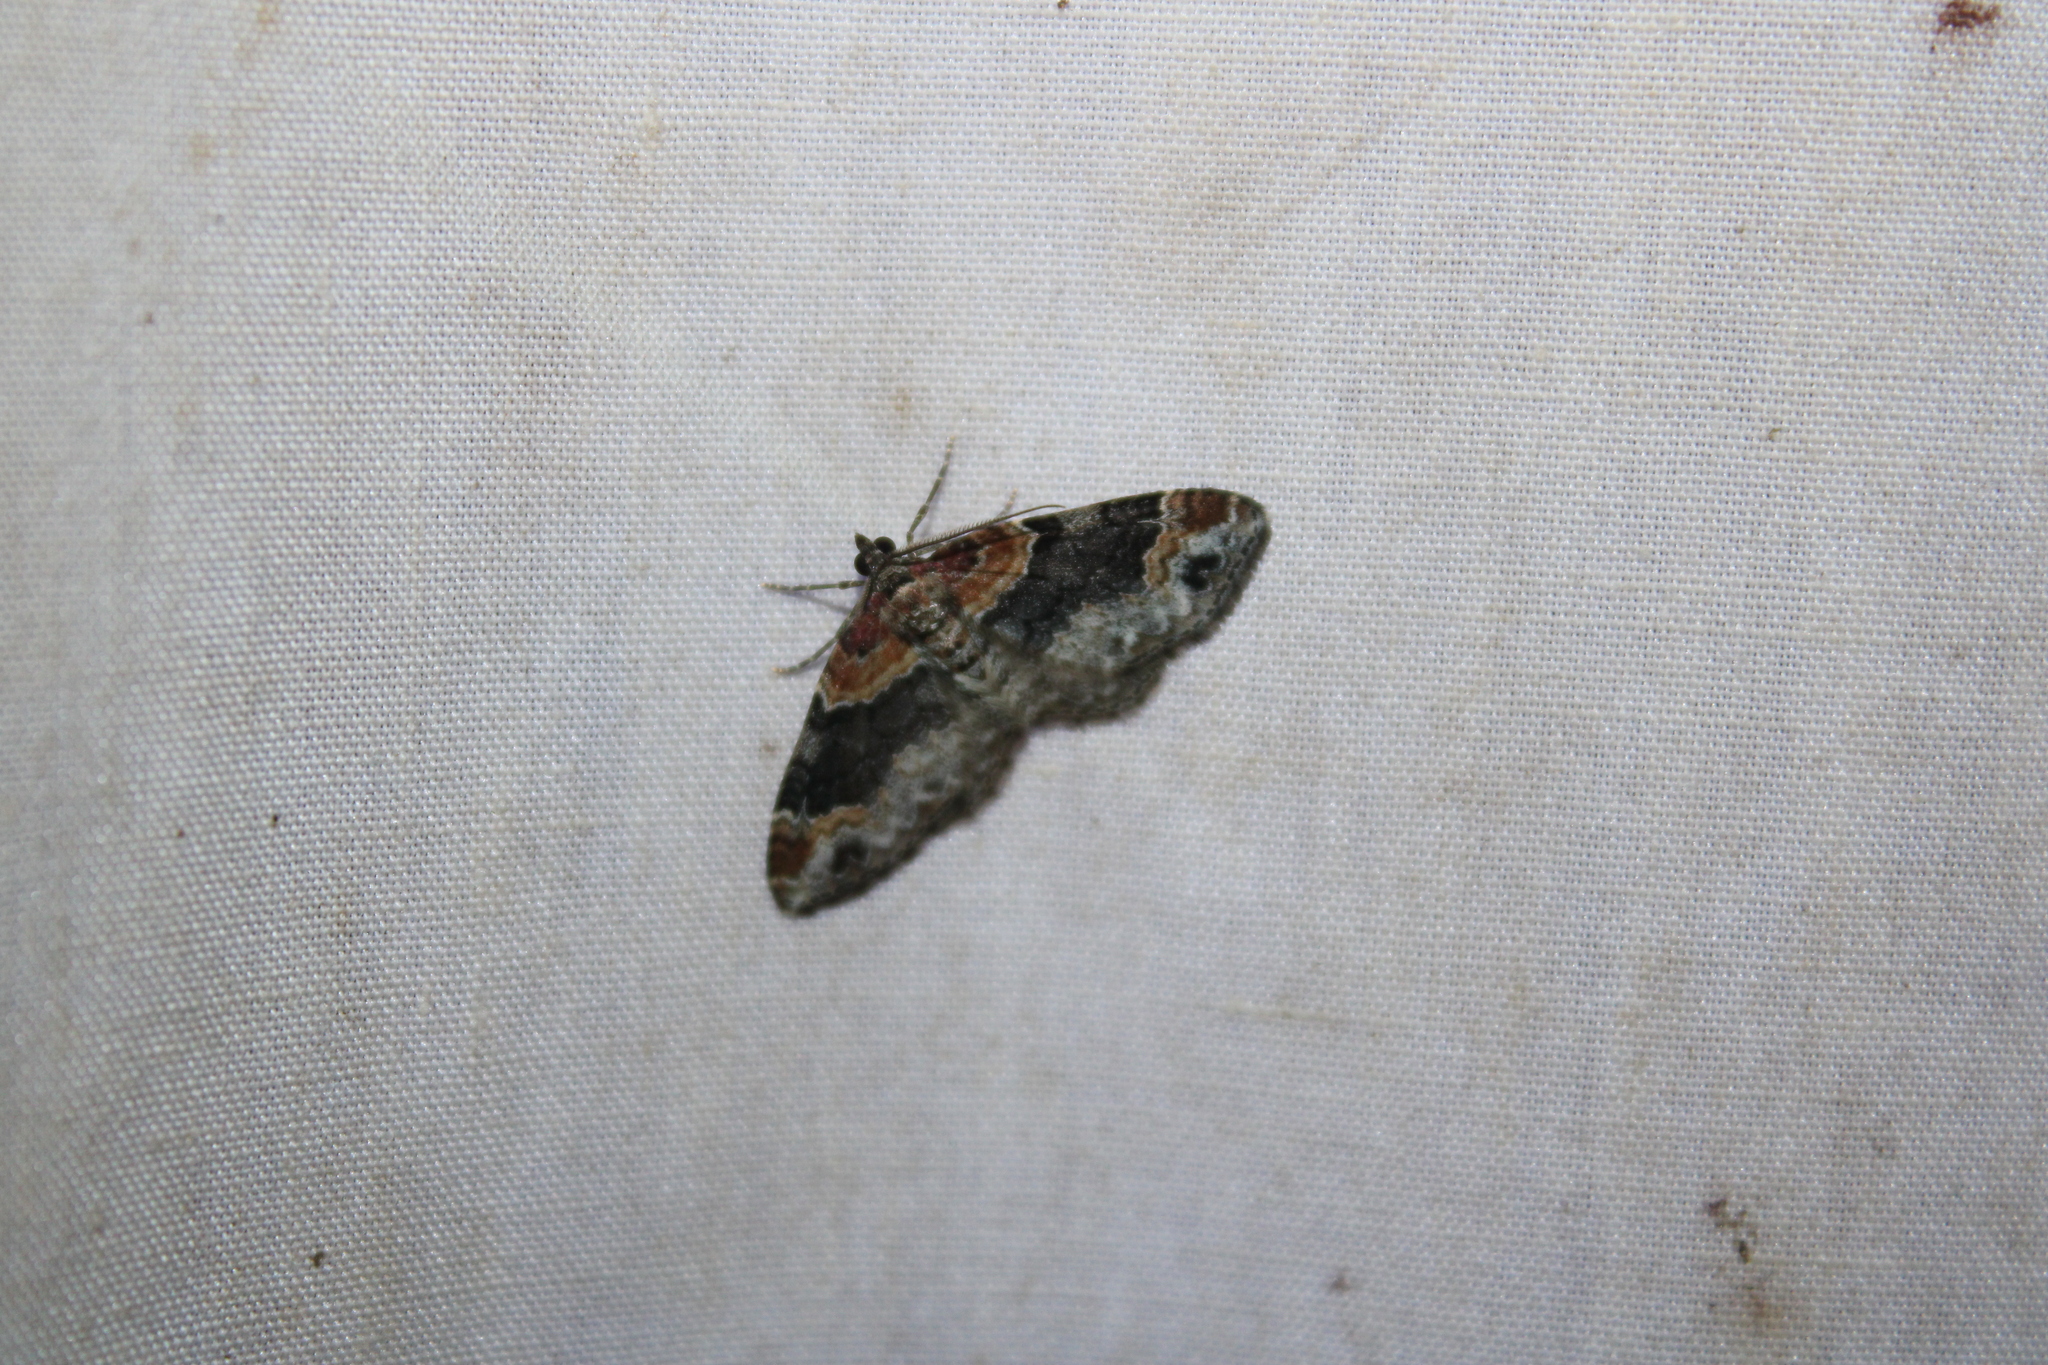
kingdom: Animalia
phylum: Arthropoda
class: Insecta
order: Lepidoptera
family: Geometridae
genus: Xanthorhoe
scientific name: Xanthorhoe ferrugata
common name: Dark-barred twin-spot carpet
